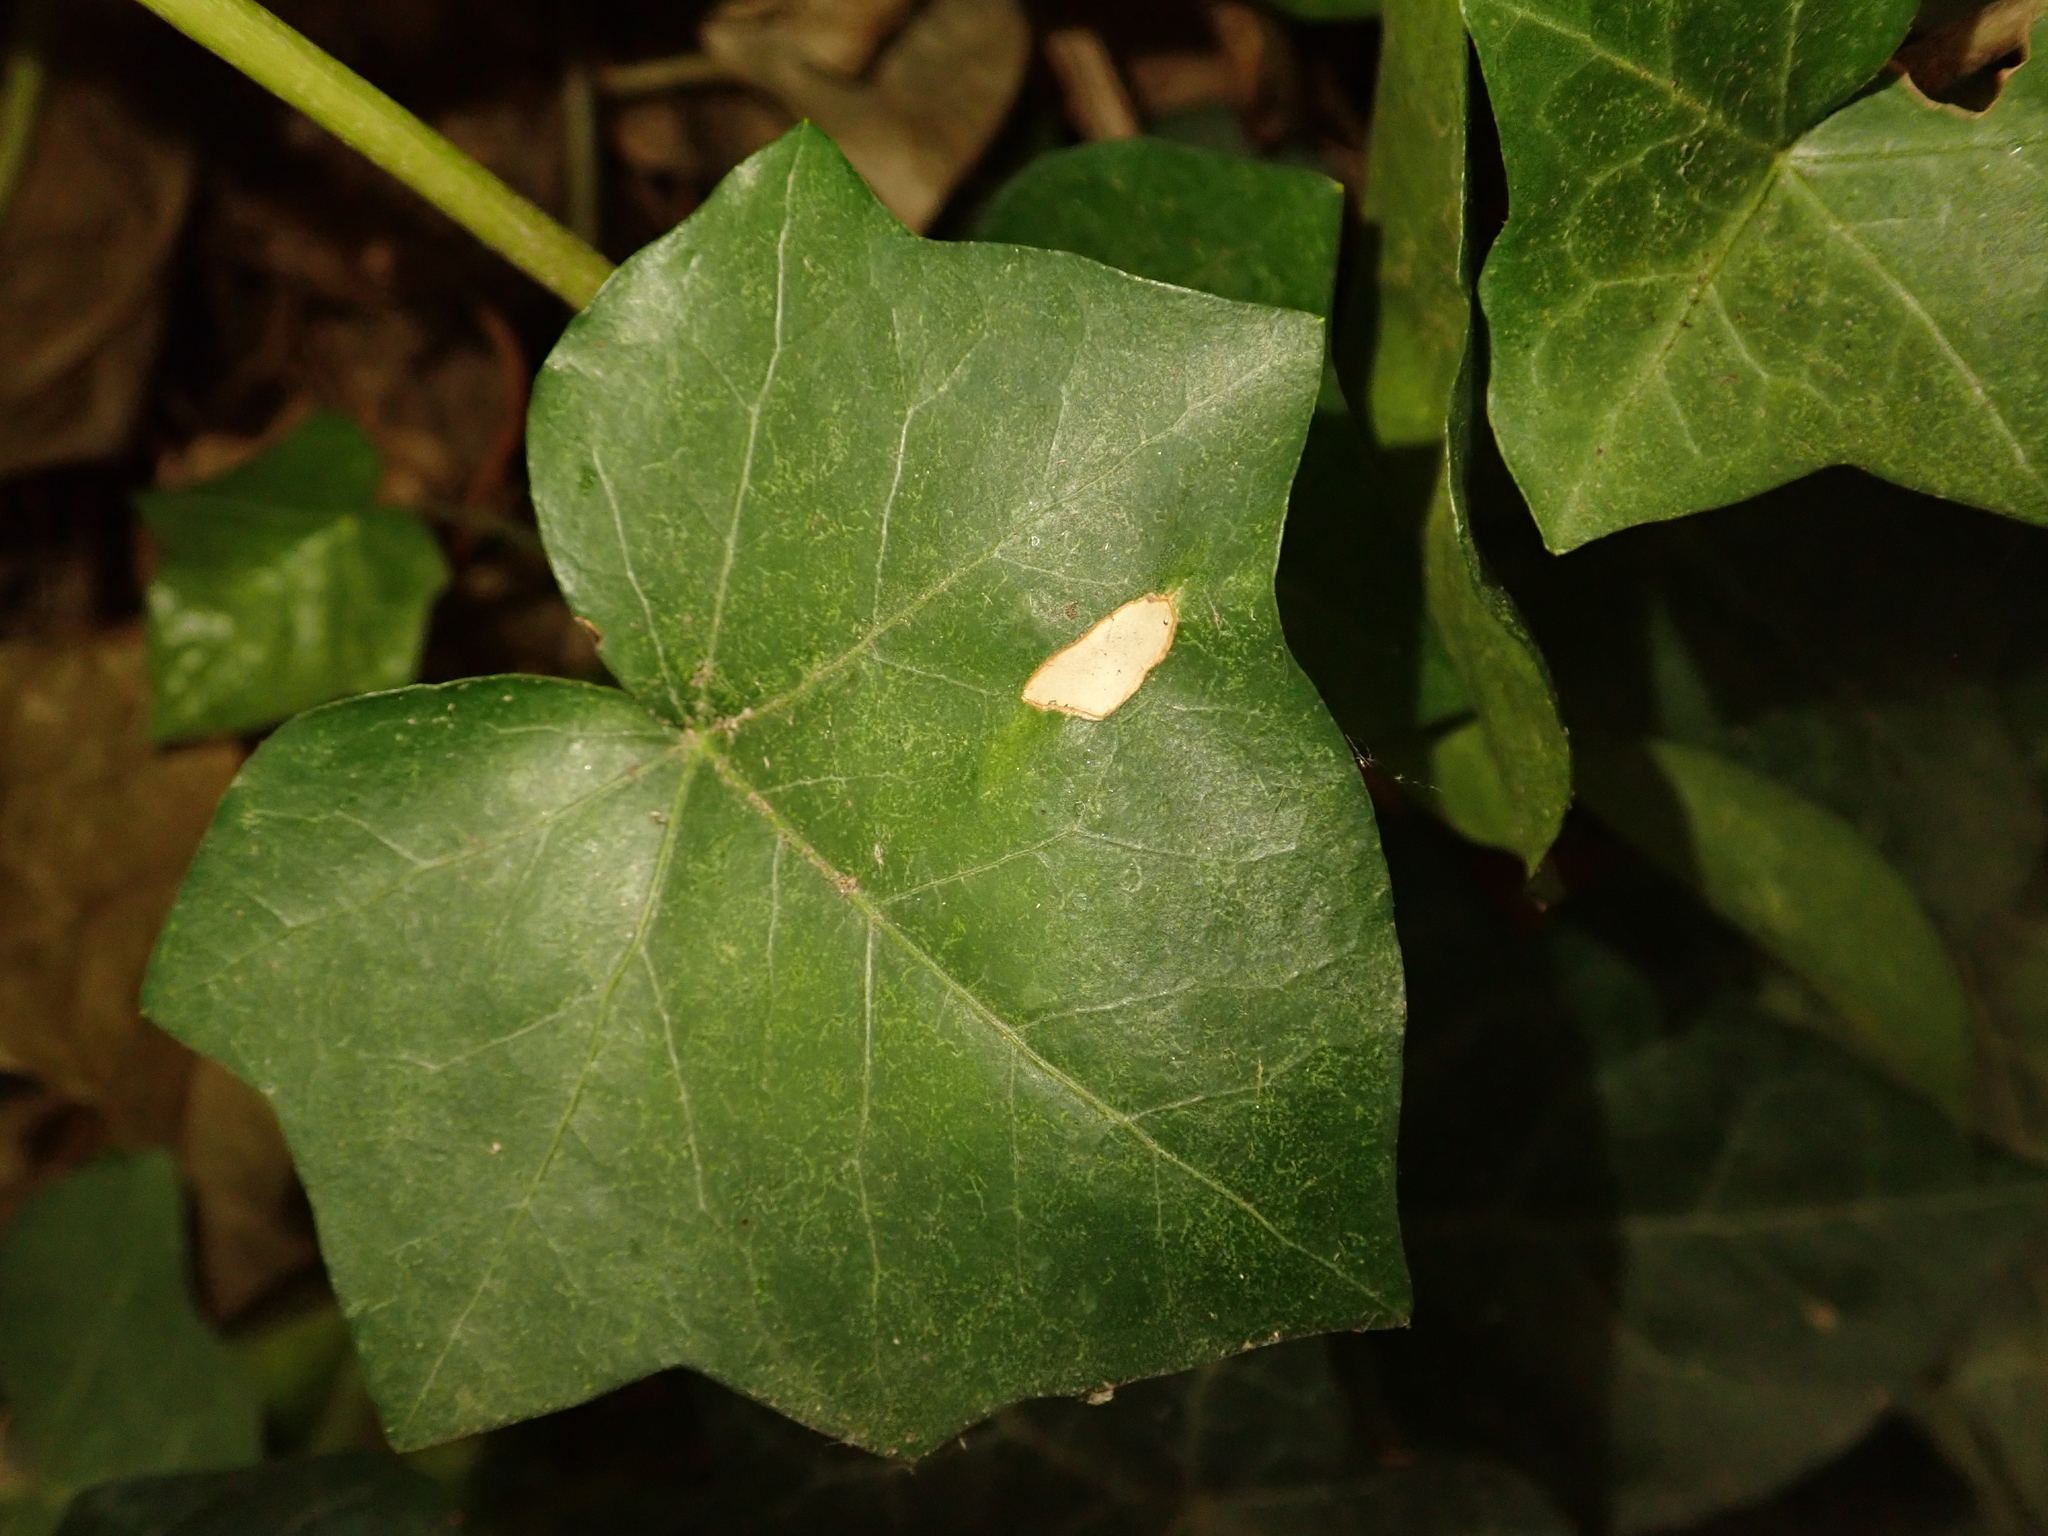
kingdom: Plantae
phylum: Tracheophyta
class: Magnoliopsida
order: Apiales
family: Araliaceae
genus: Hedera
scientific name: Hedera helix
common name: Ivy
